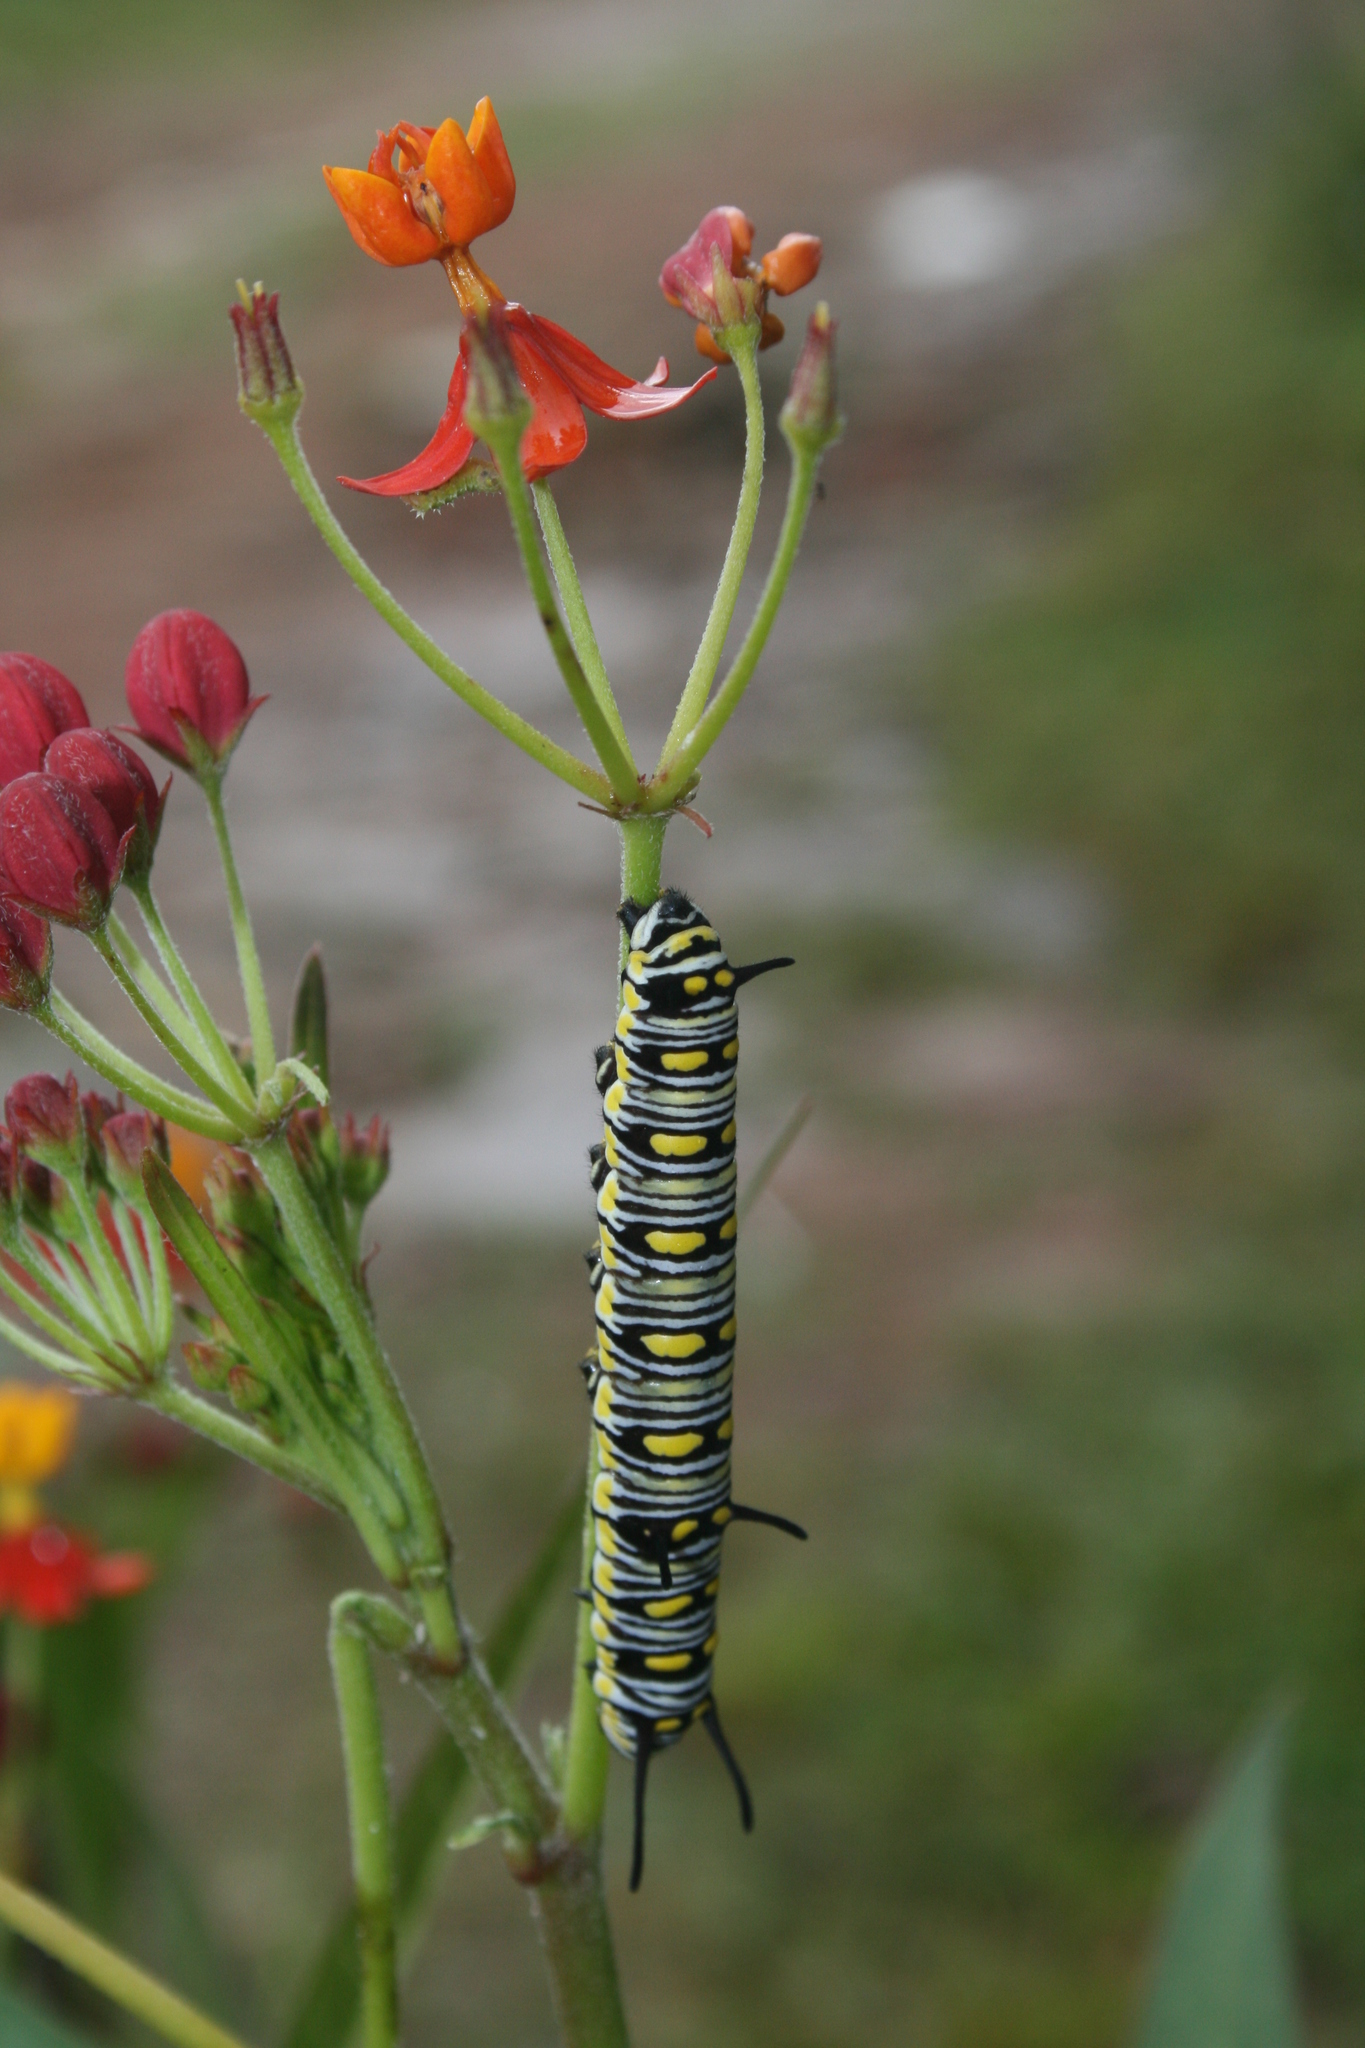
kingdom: Animalia
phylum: Arthropoda
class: Insecta
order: Lepidoptera
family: Nymphalidae
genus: Danaus
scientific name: Danaus chrysippus
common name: Plain tiger
